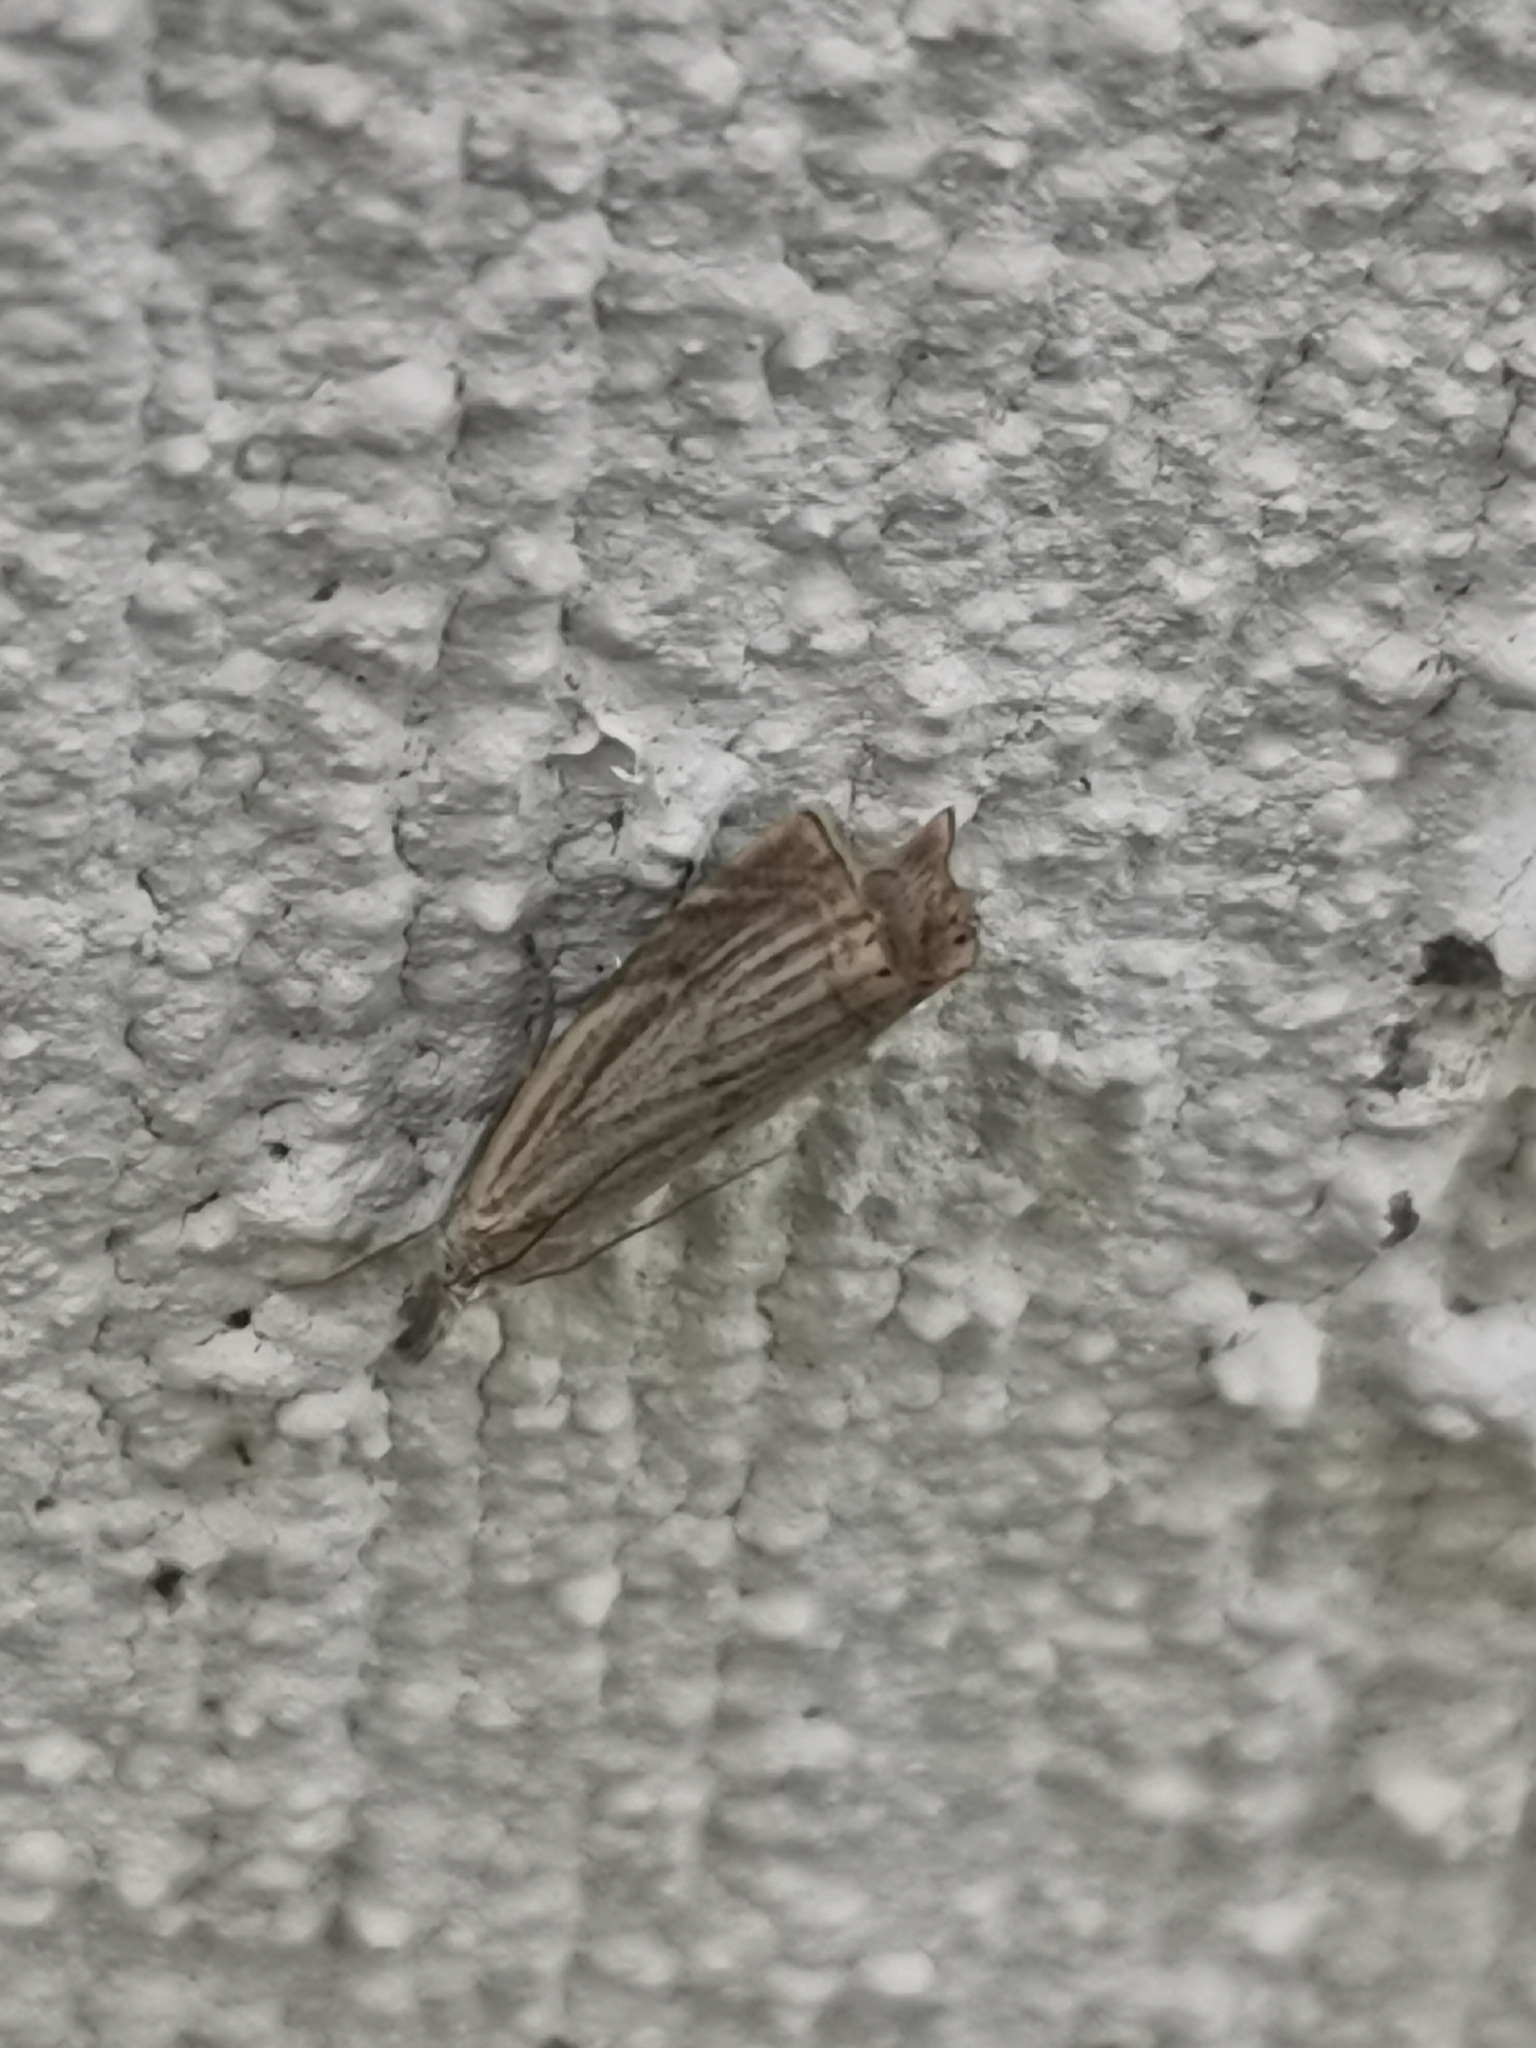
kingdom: Animalia
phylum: Arthropoda
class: Insecta
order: Lepidoptera
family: Crambidae
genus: Chrysoteuchia
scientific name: Chrysoteuchia culmella
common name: Garden grass-veneer
